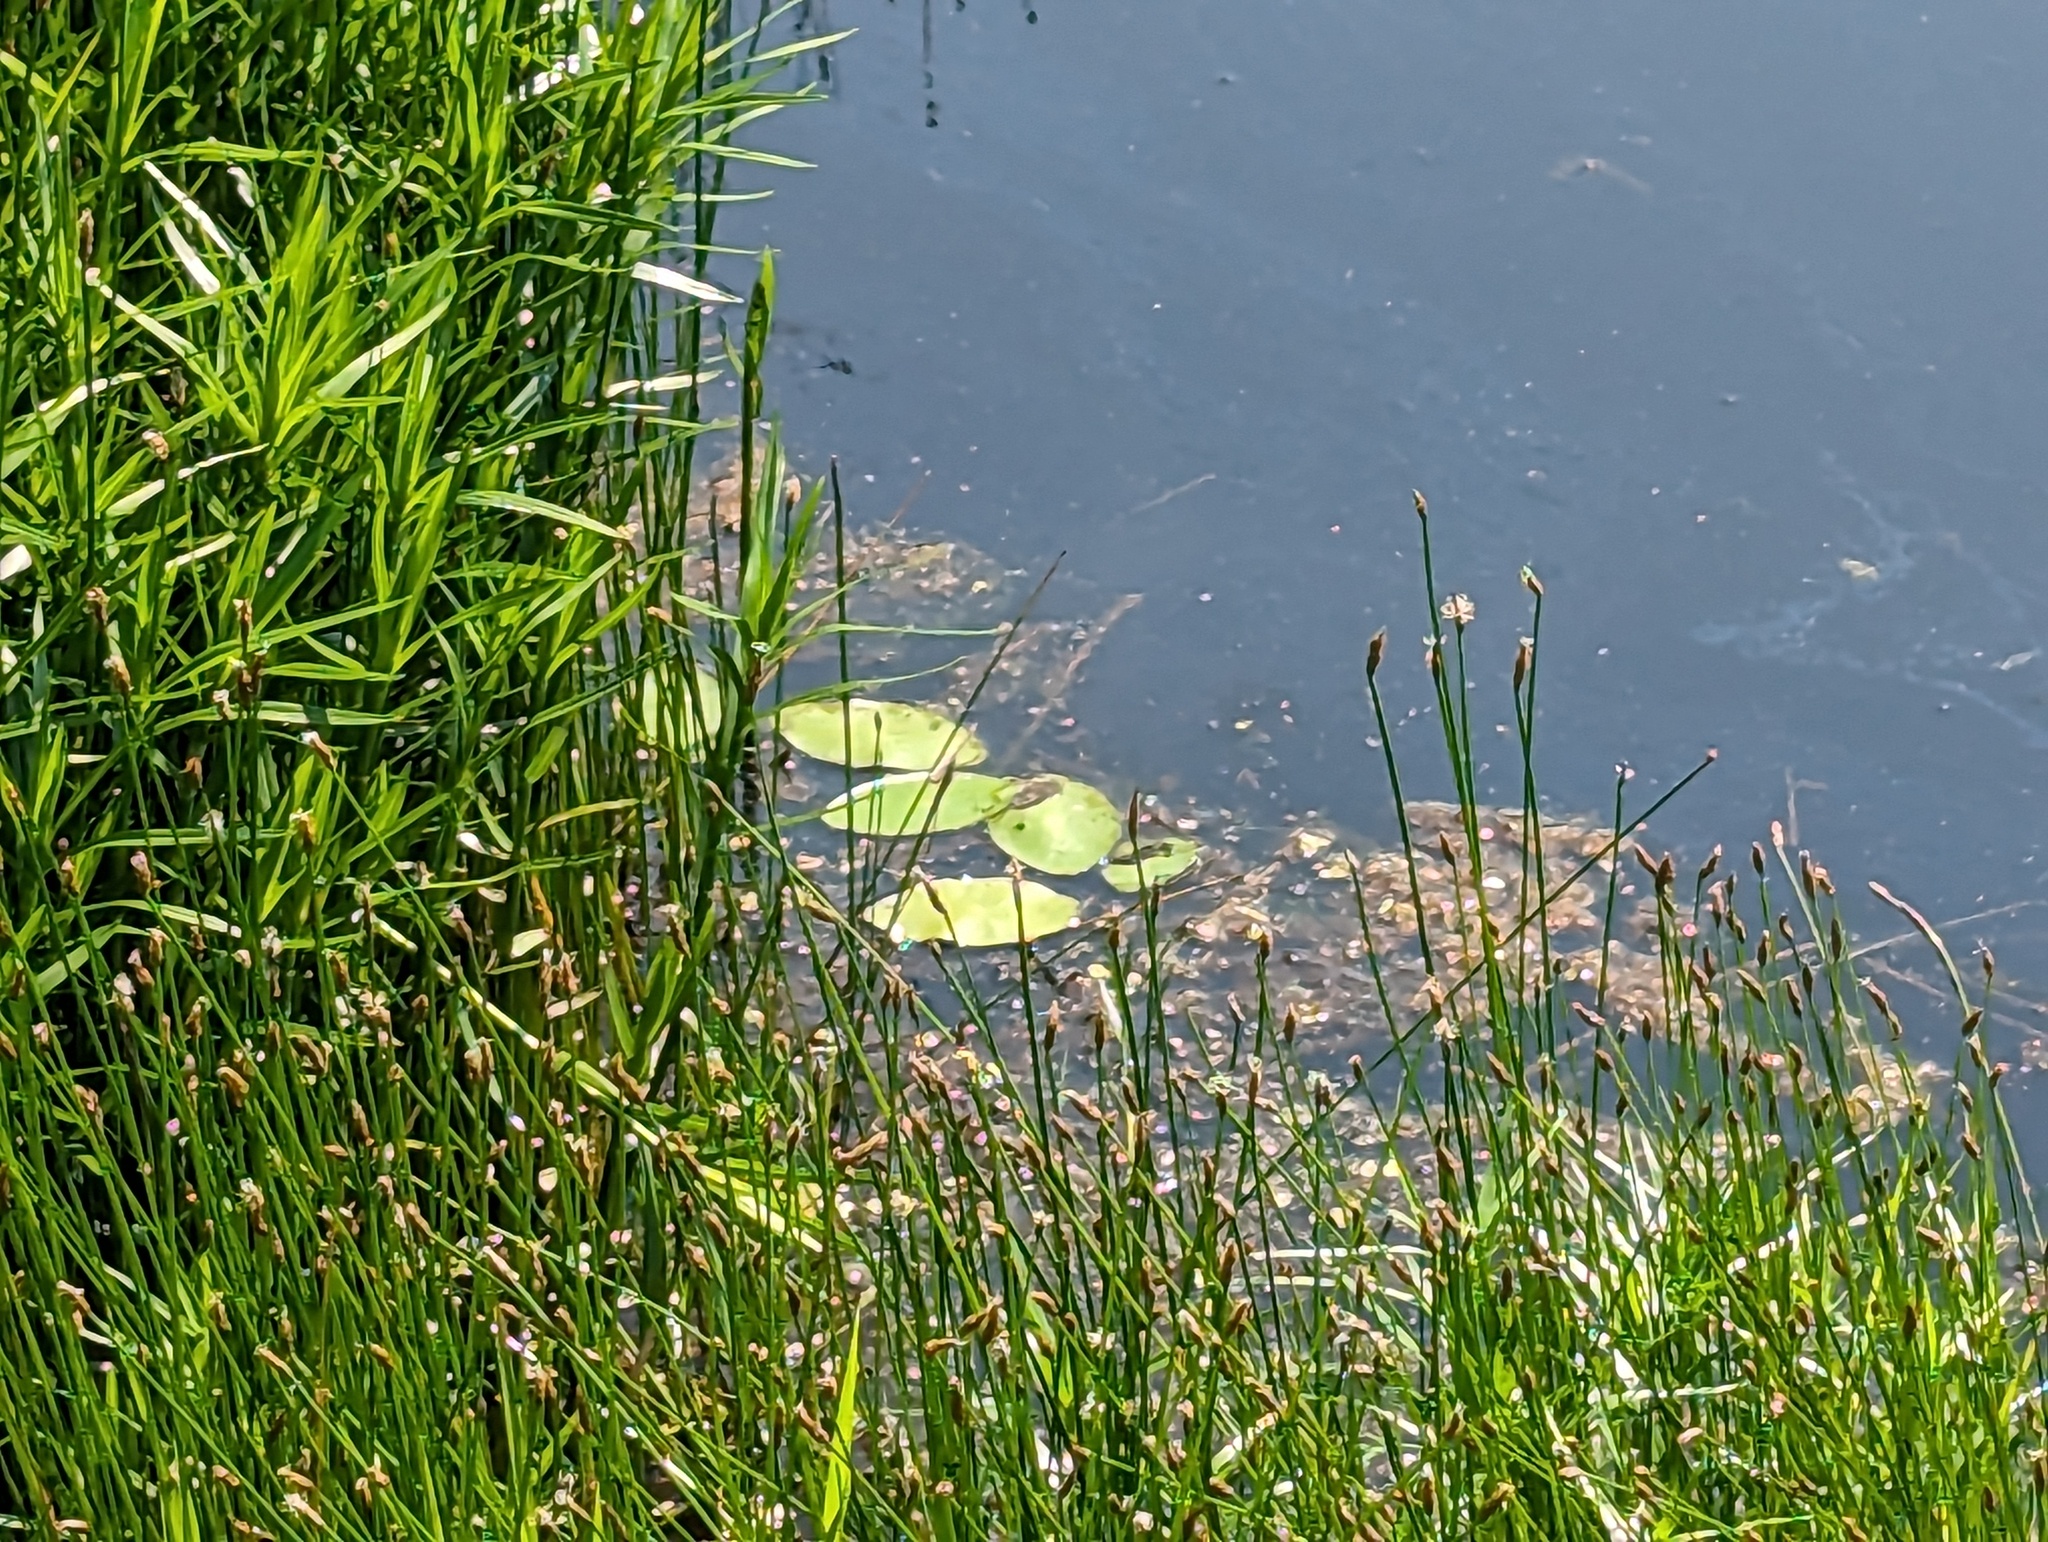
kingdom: Plantae
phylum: Tracheophyta
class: Magnoliopsida
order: Nymphaeales
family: Cabombaceae
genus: Brasenia
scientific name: Brasenia schreberi
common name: Water-shield
